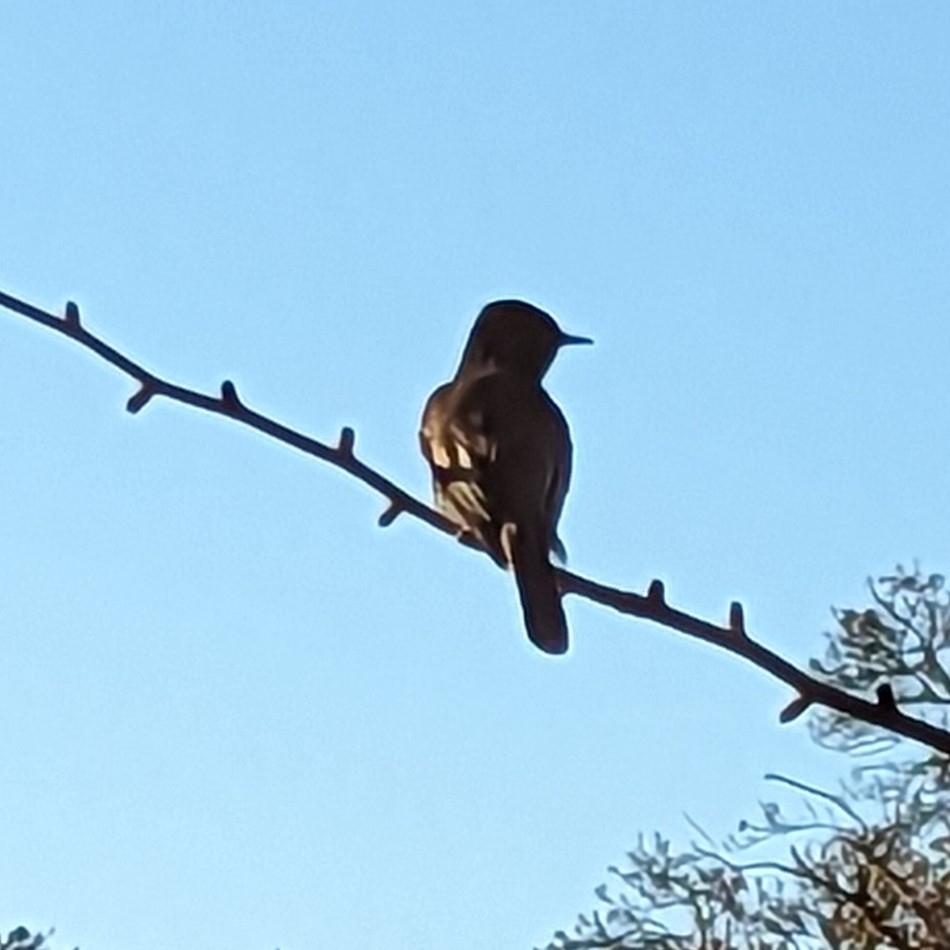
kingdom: Animalia
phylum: Chordata
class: Aves
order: Passeriformes
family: Tyrannidae
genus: Sayornis
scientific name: Sayornis nigricans
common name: Black phoebe
